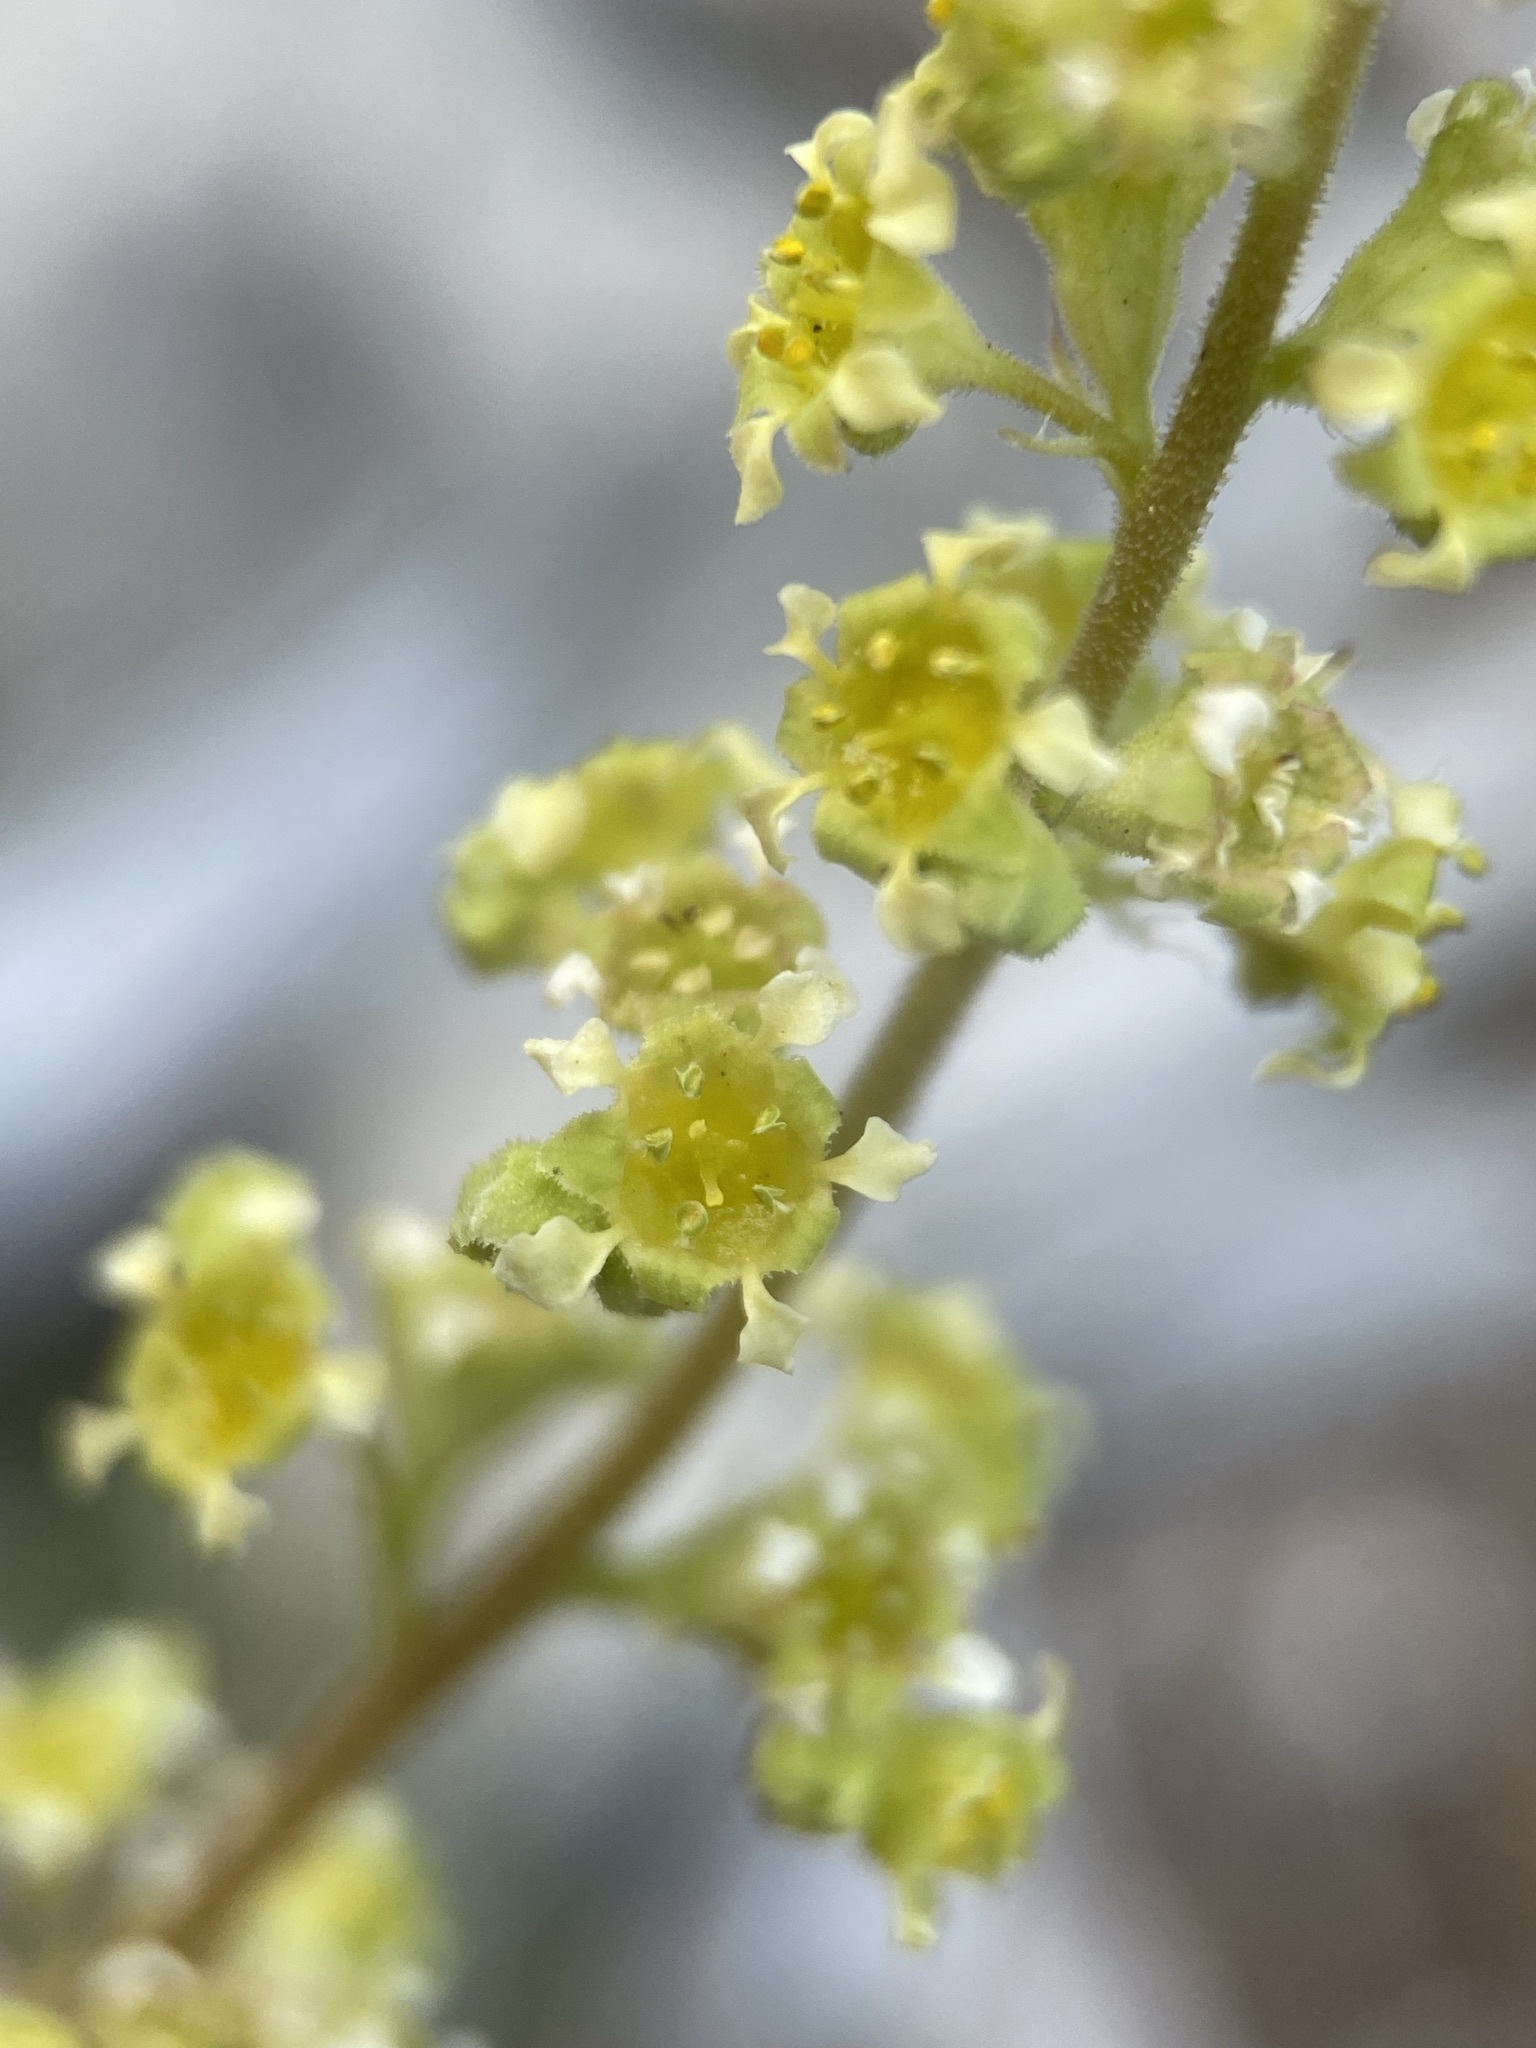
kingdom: Plantae
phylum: Tracheophyta
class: Magnoliopsida
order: Saxifragales
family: Saxifragaceae
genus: Heuchera
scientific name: Heuchera parvifolia
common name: Common alumroot
